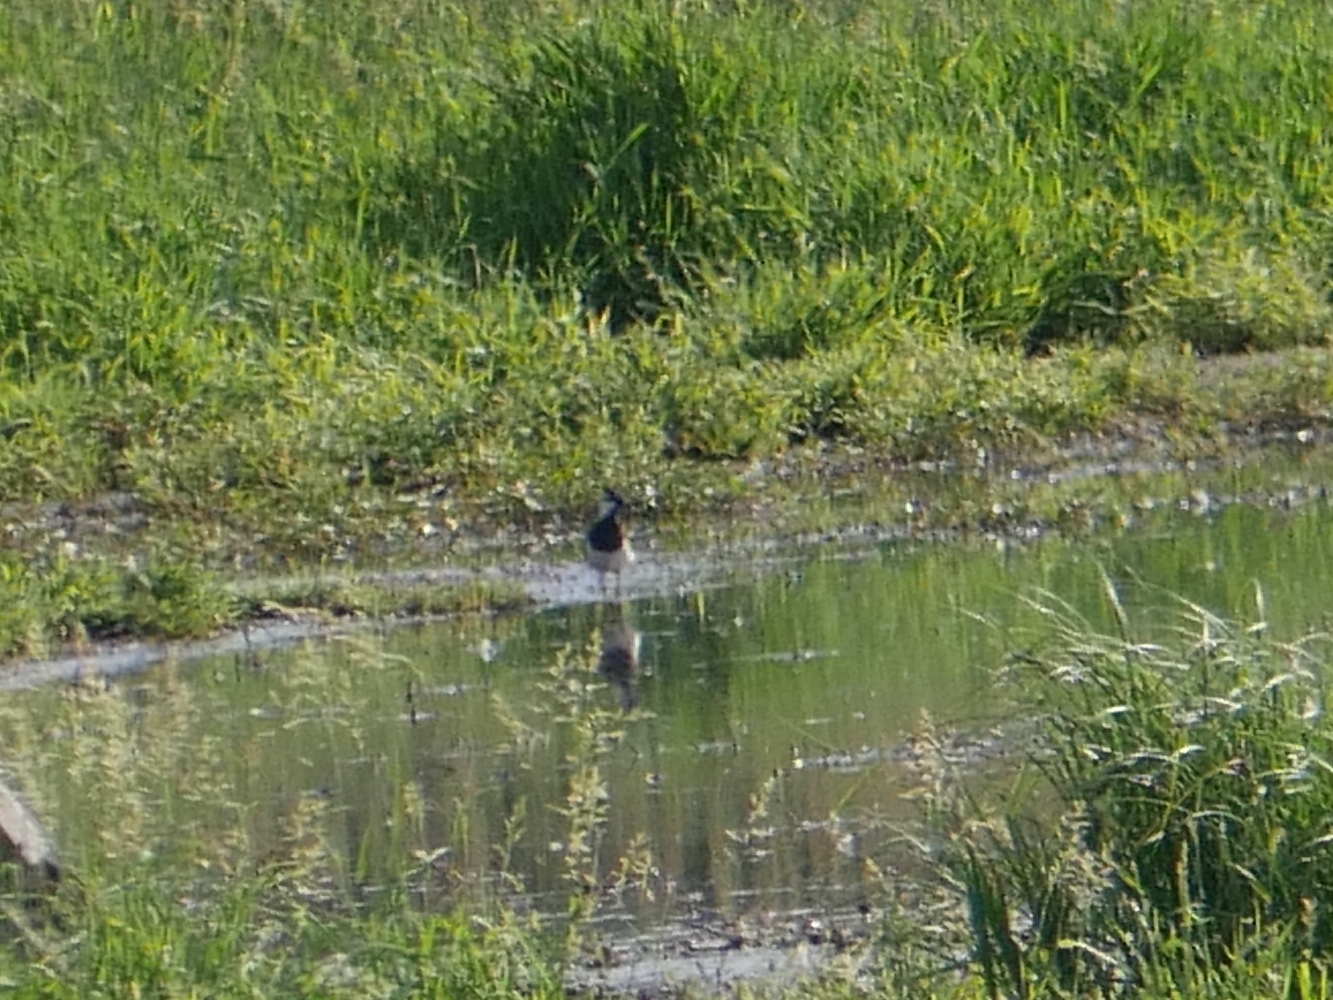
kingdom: Animalia
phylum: Chordata
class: Aves
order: Charadriiformes
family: Charadriidae
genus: Vanellus
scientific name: Vanellus vanellus
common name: Northern lapwing
